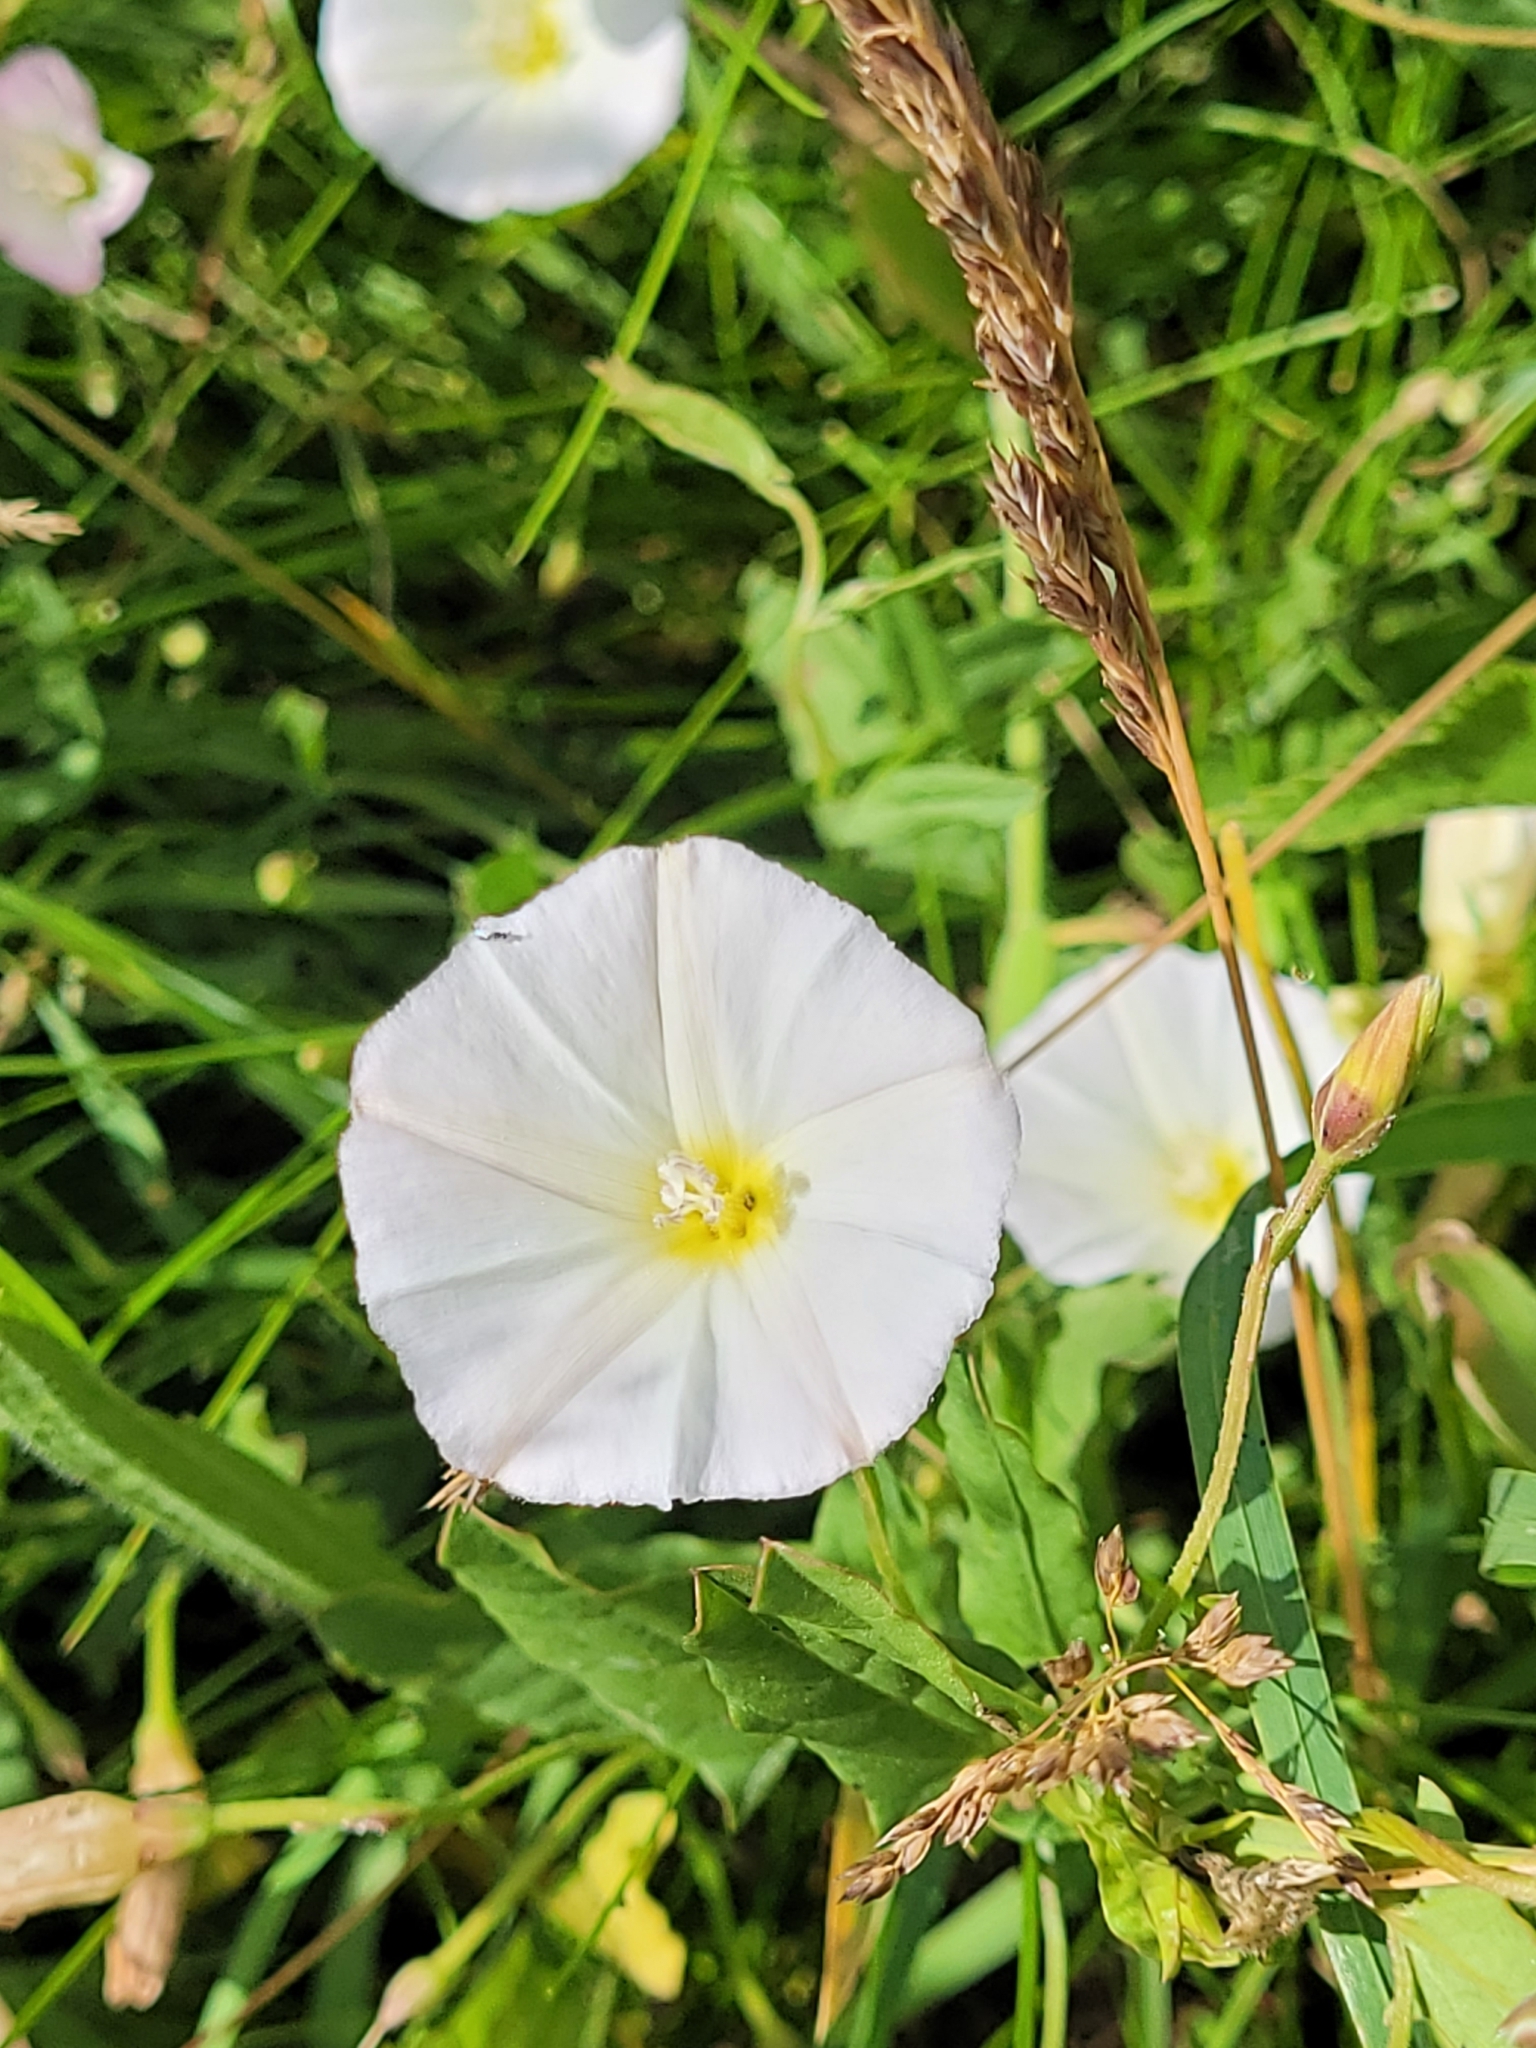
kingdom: Plantae
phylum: Tracheophyta
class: Magnoliopsida
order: Solanales
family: Convolvulaceae
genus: Convolvulus
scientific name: Convolvulus arvensis
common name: Field bindweed
